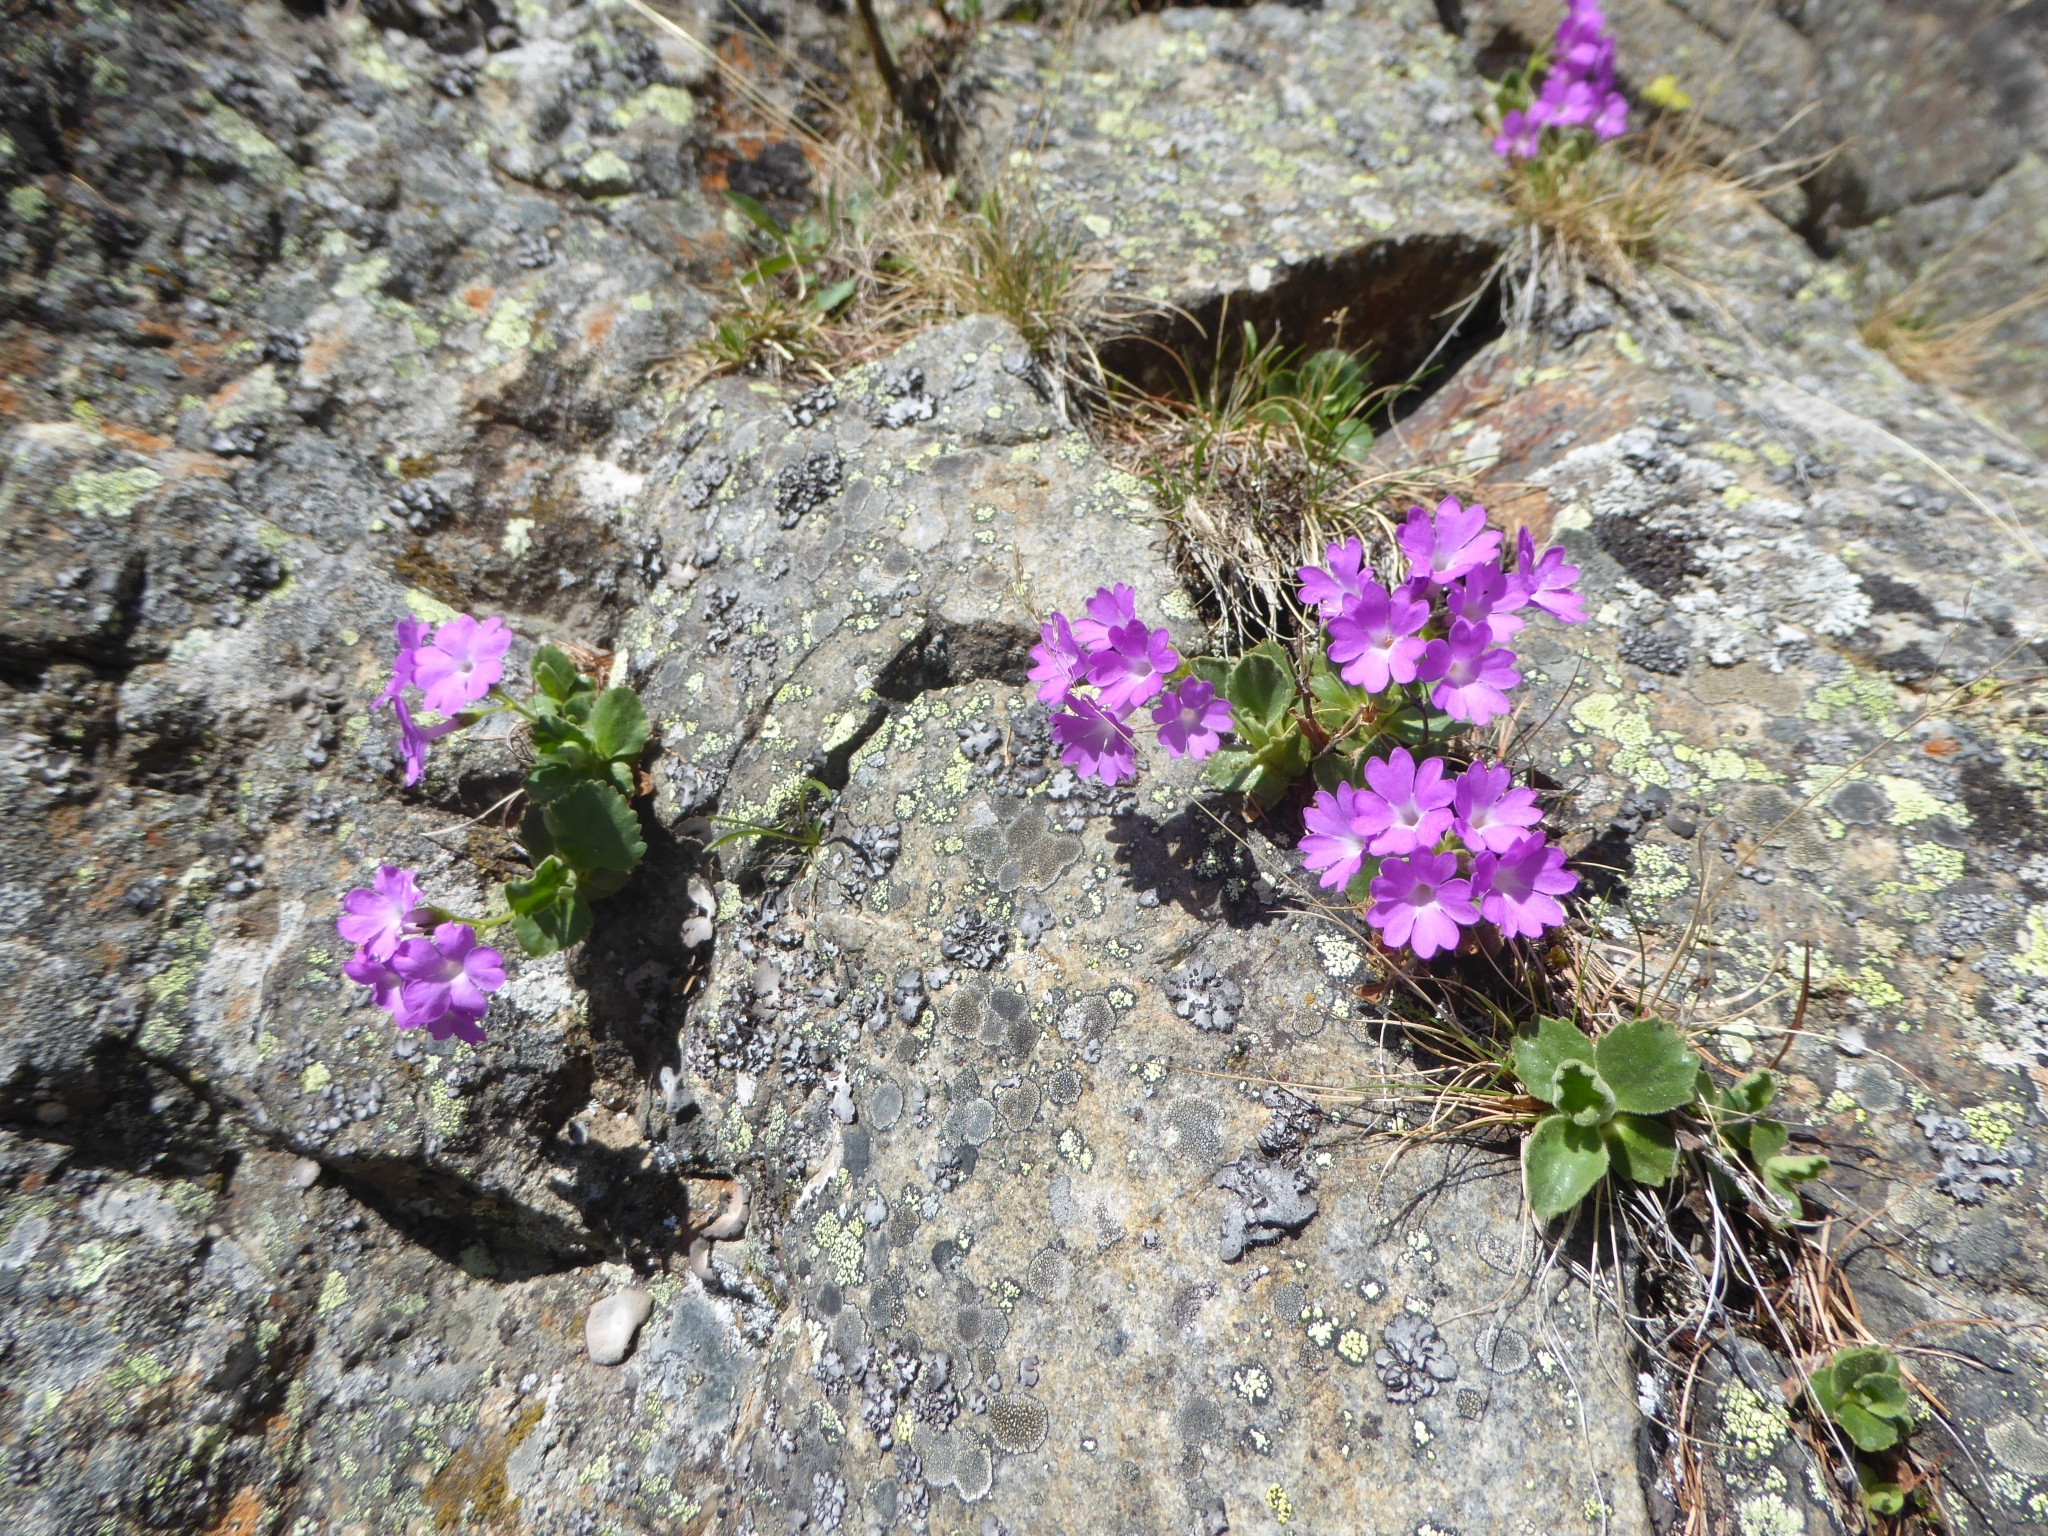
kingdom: Plantae
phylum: Tracheophyta
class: Magnoliopsida
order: Ericales
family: Primulaceae
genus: Primula
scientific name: Primula hirsuta
